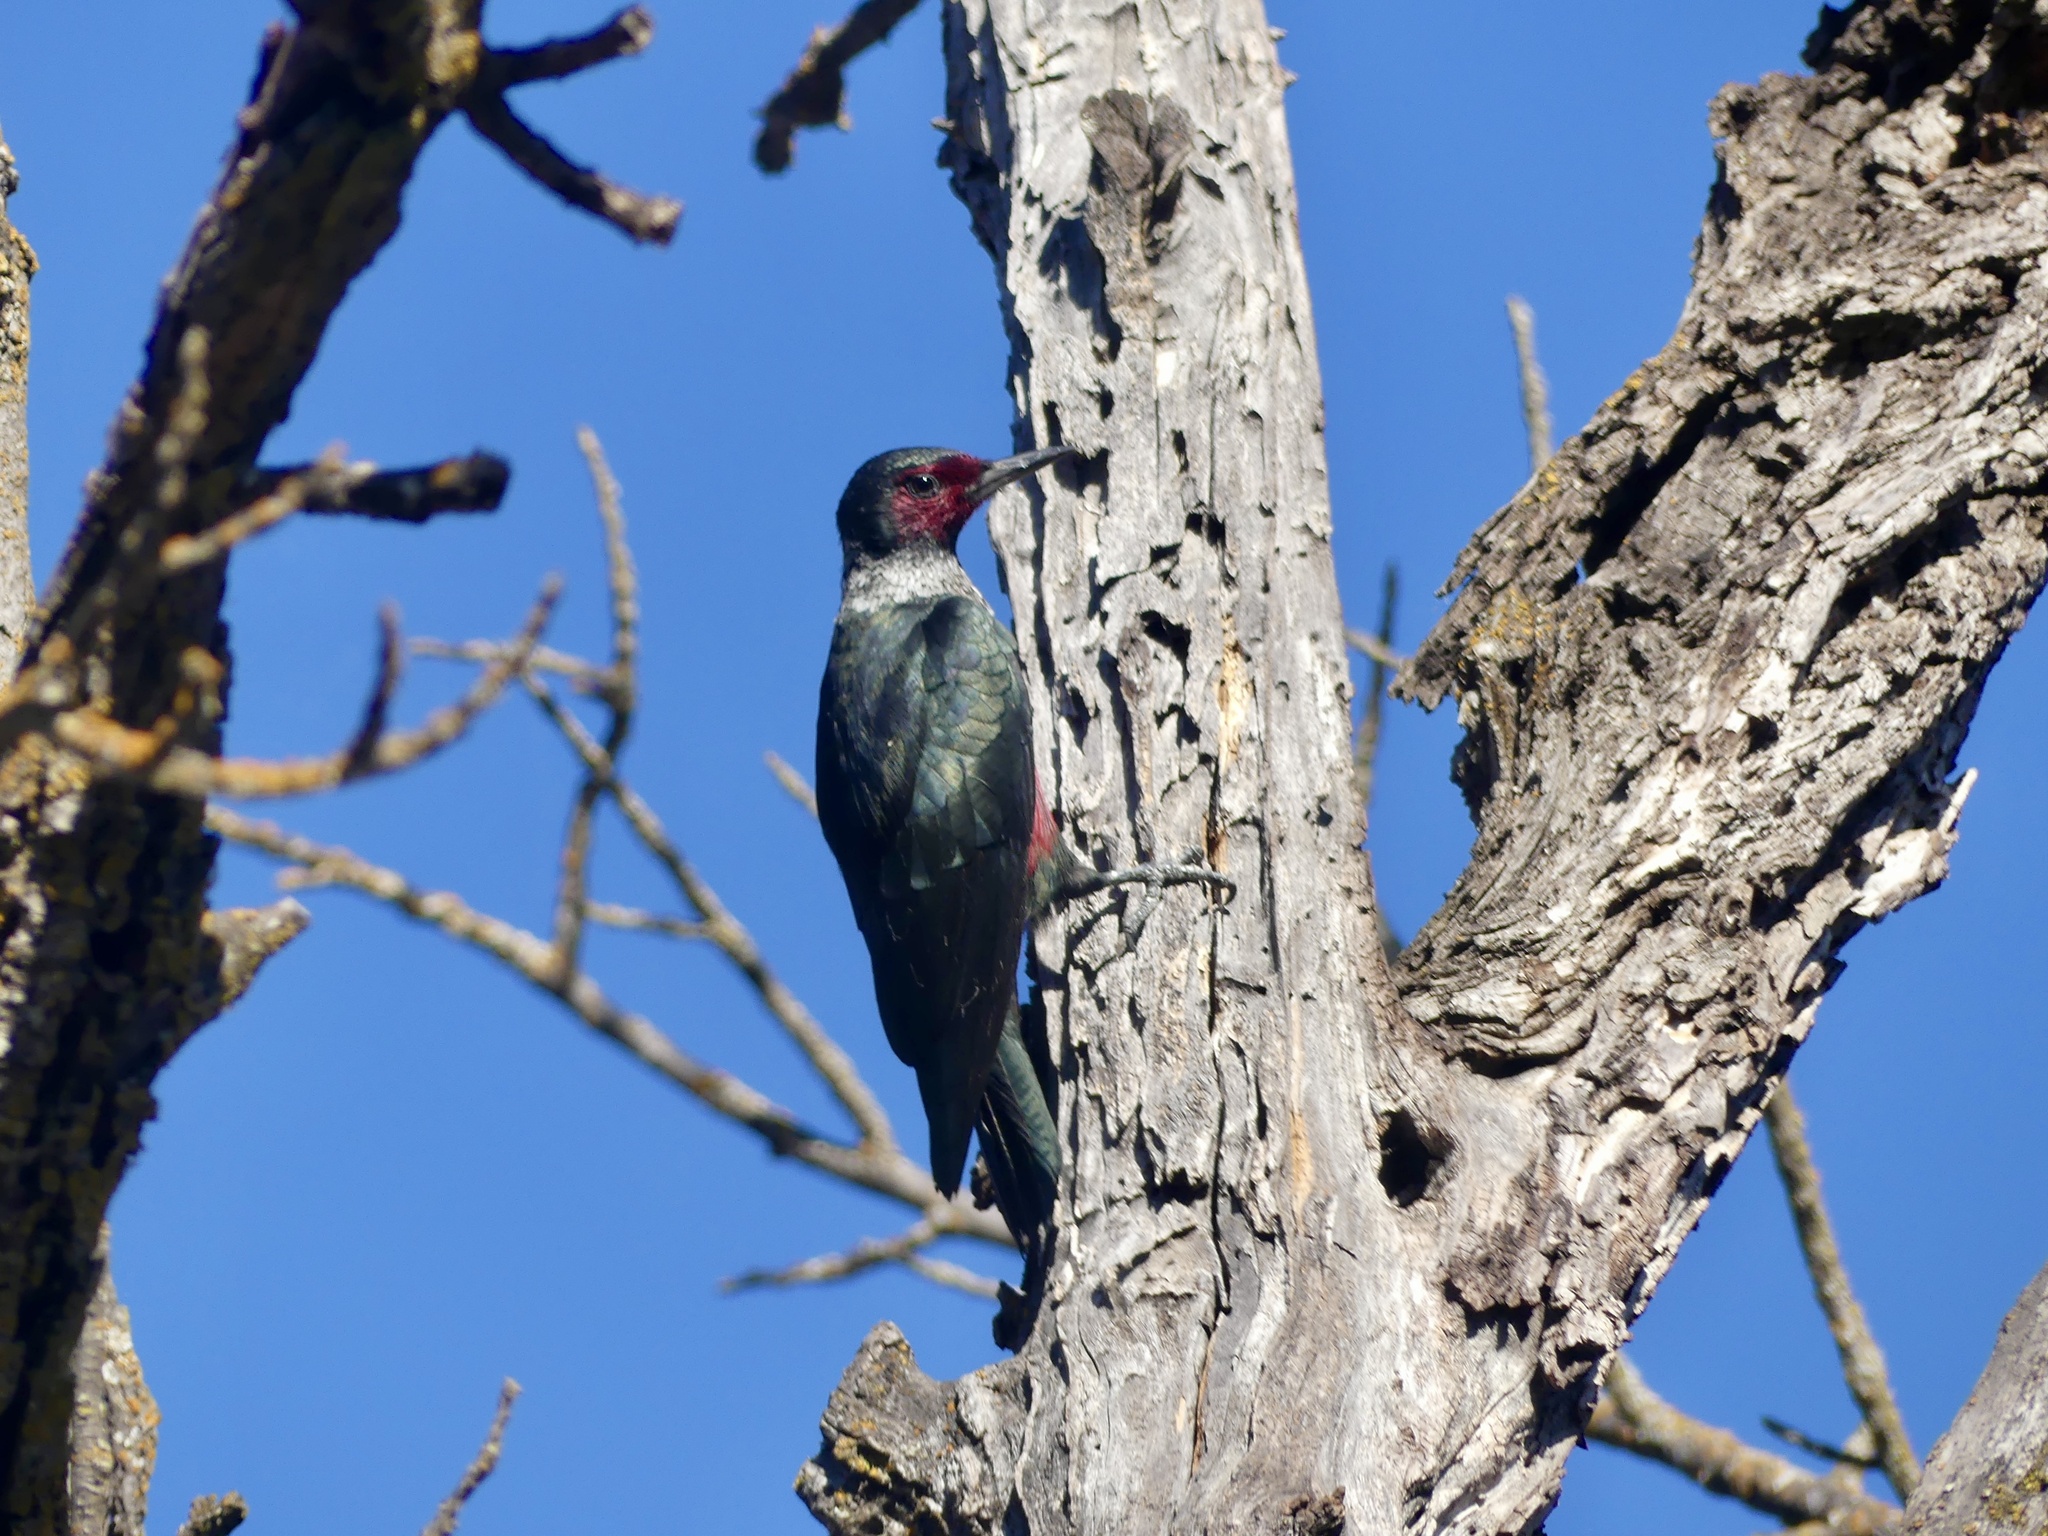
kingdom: Animalia
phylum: Chordata
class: Aves
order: Piciformes
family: Picidae
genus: Melanerpes
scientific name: Melanerpes lewis
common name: Lewis's woodpecker
